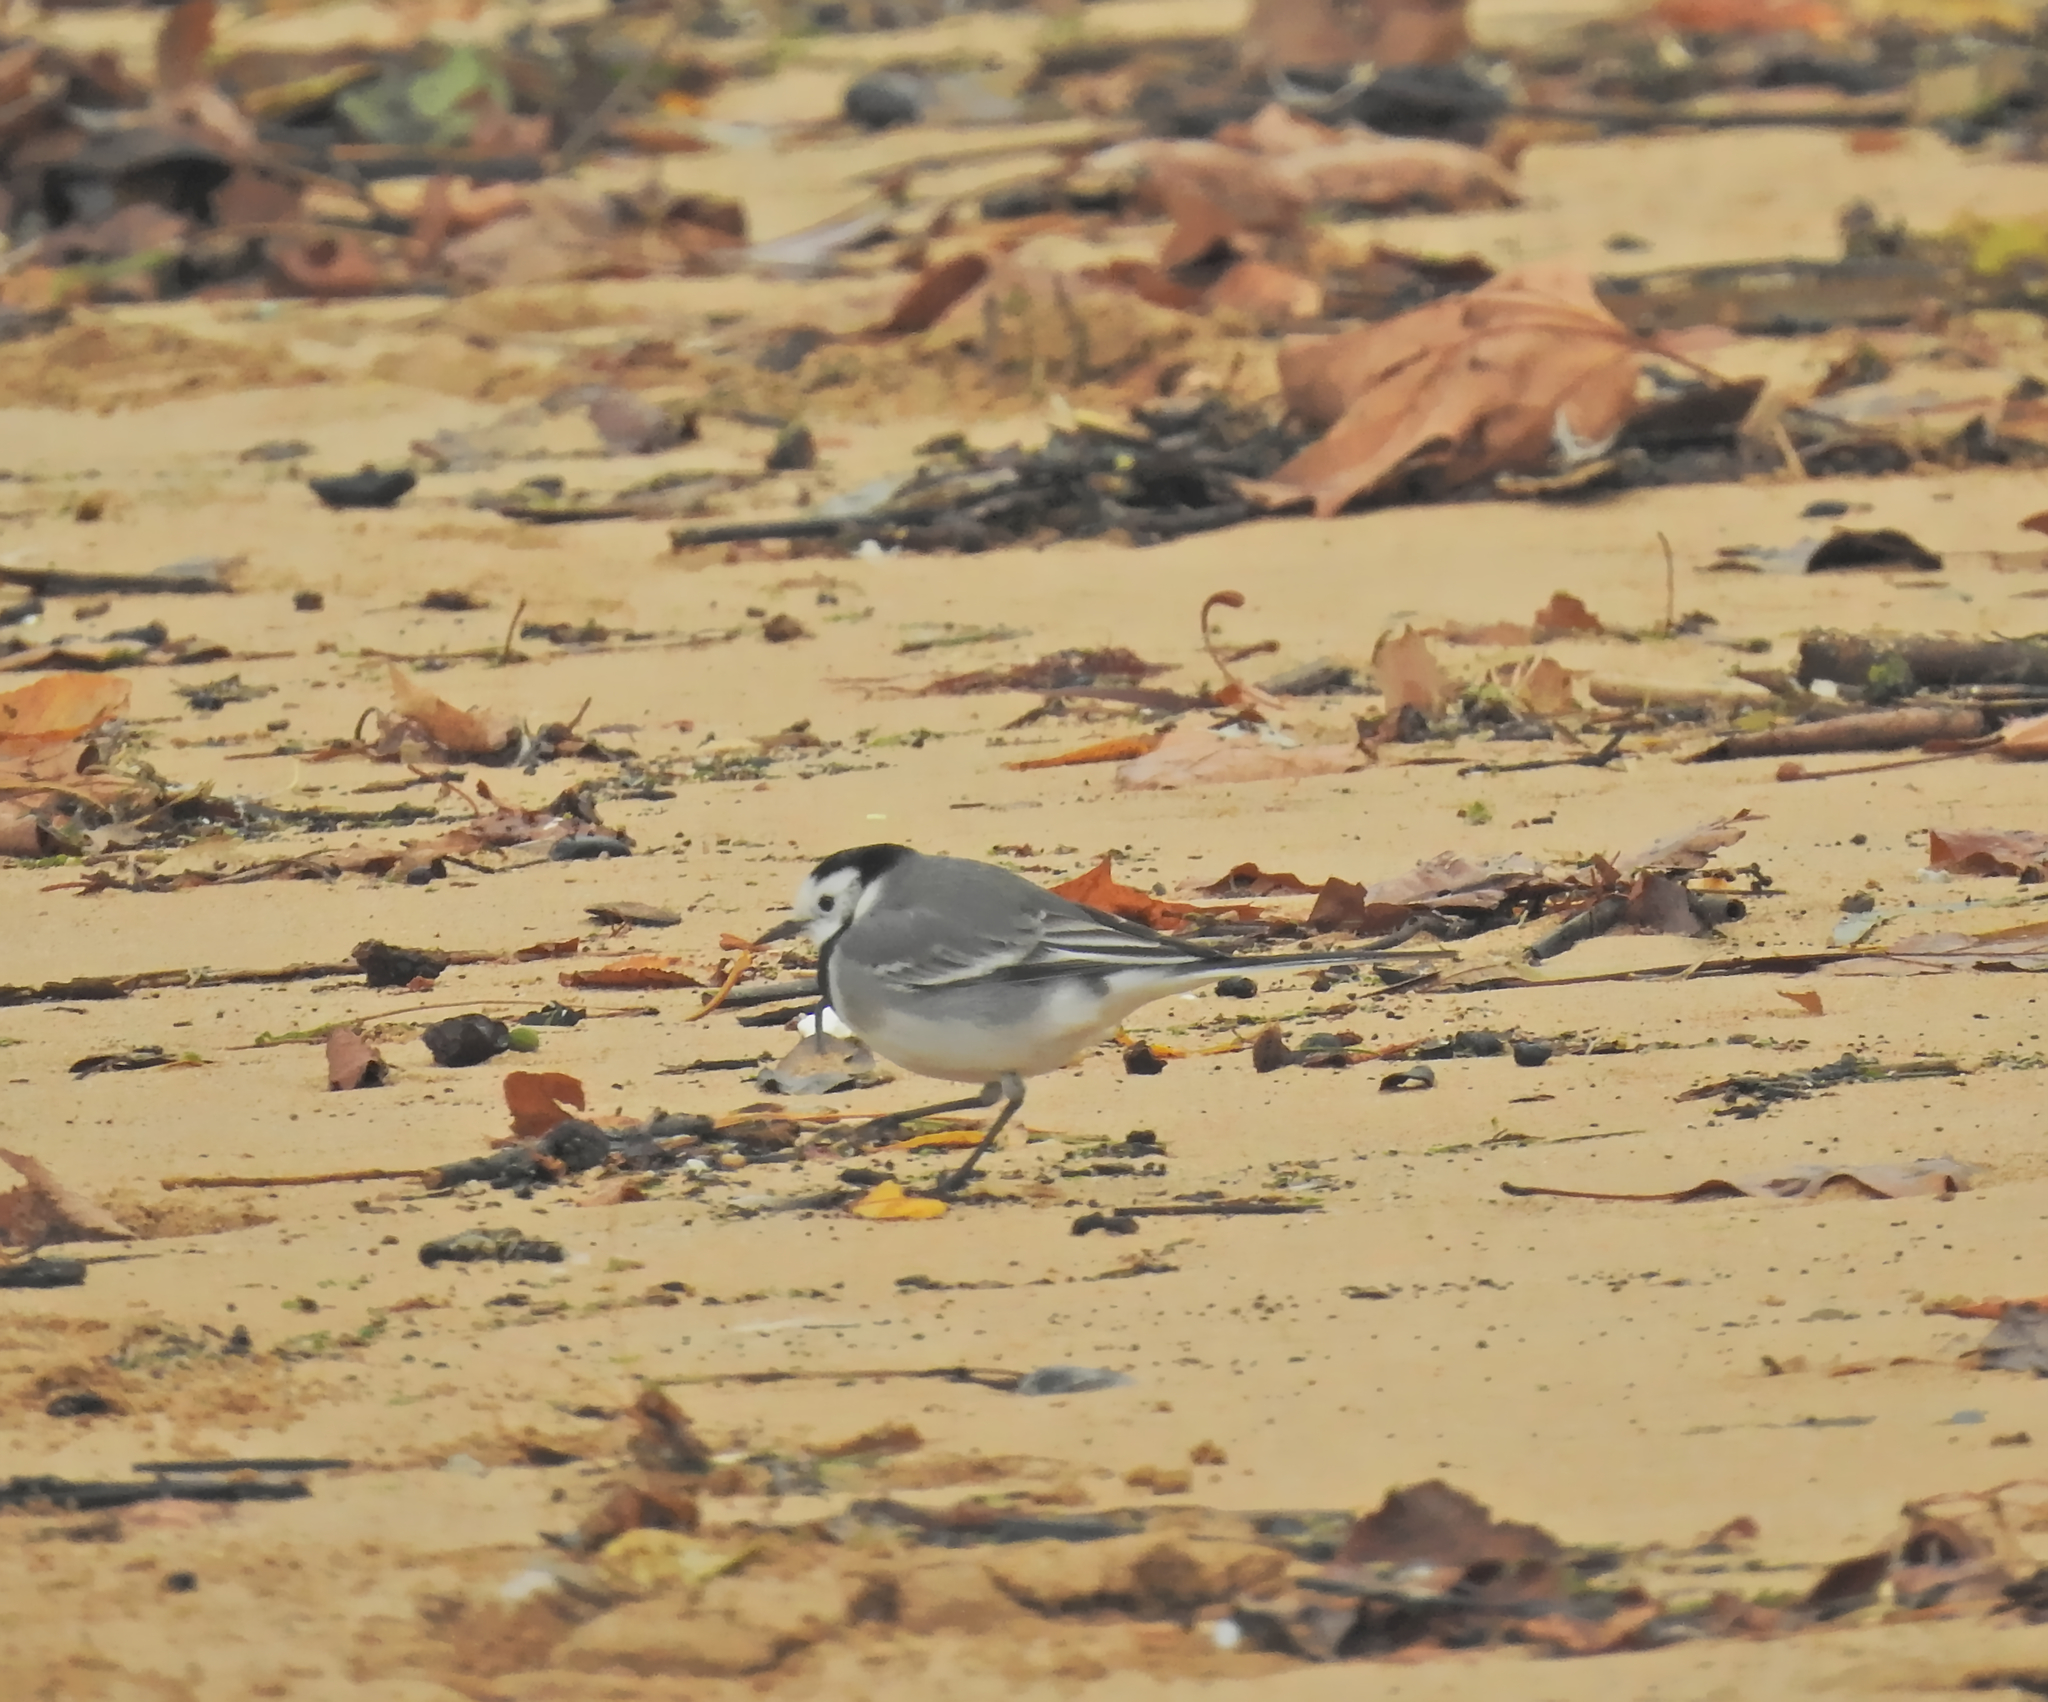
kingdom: Animalia
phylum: Chordata
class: Aves
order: Passeriformes
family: Motacillidae
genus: Motacilla
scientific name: Motacilla alba
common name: White wagtail
